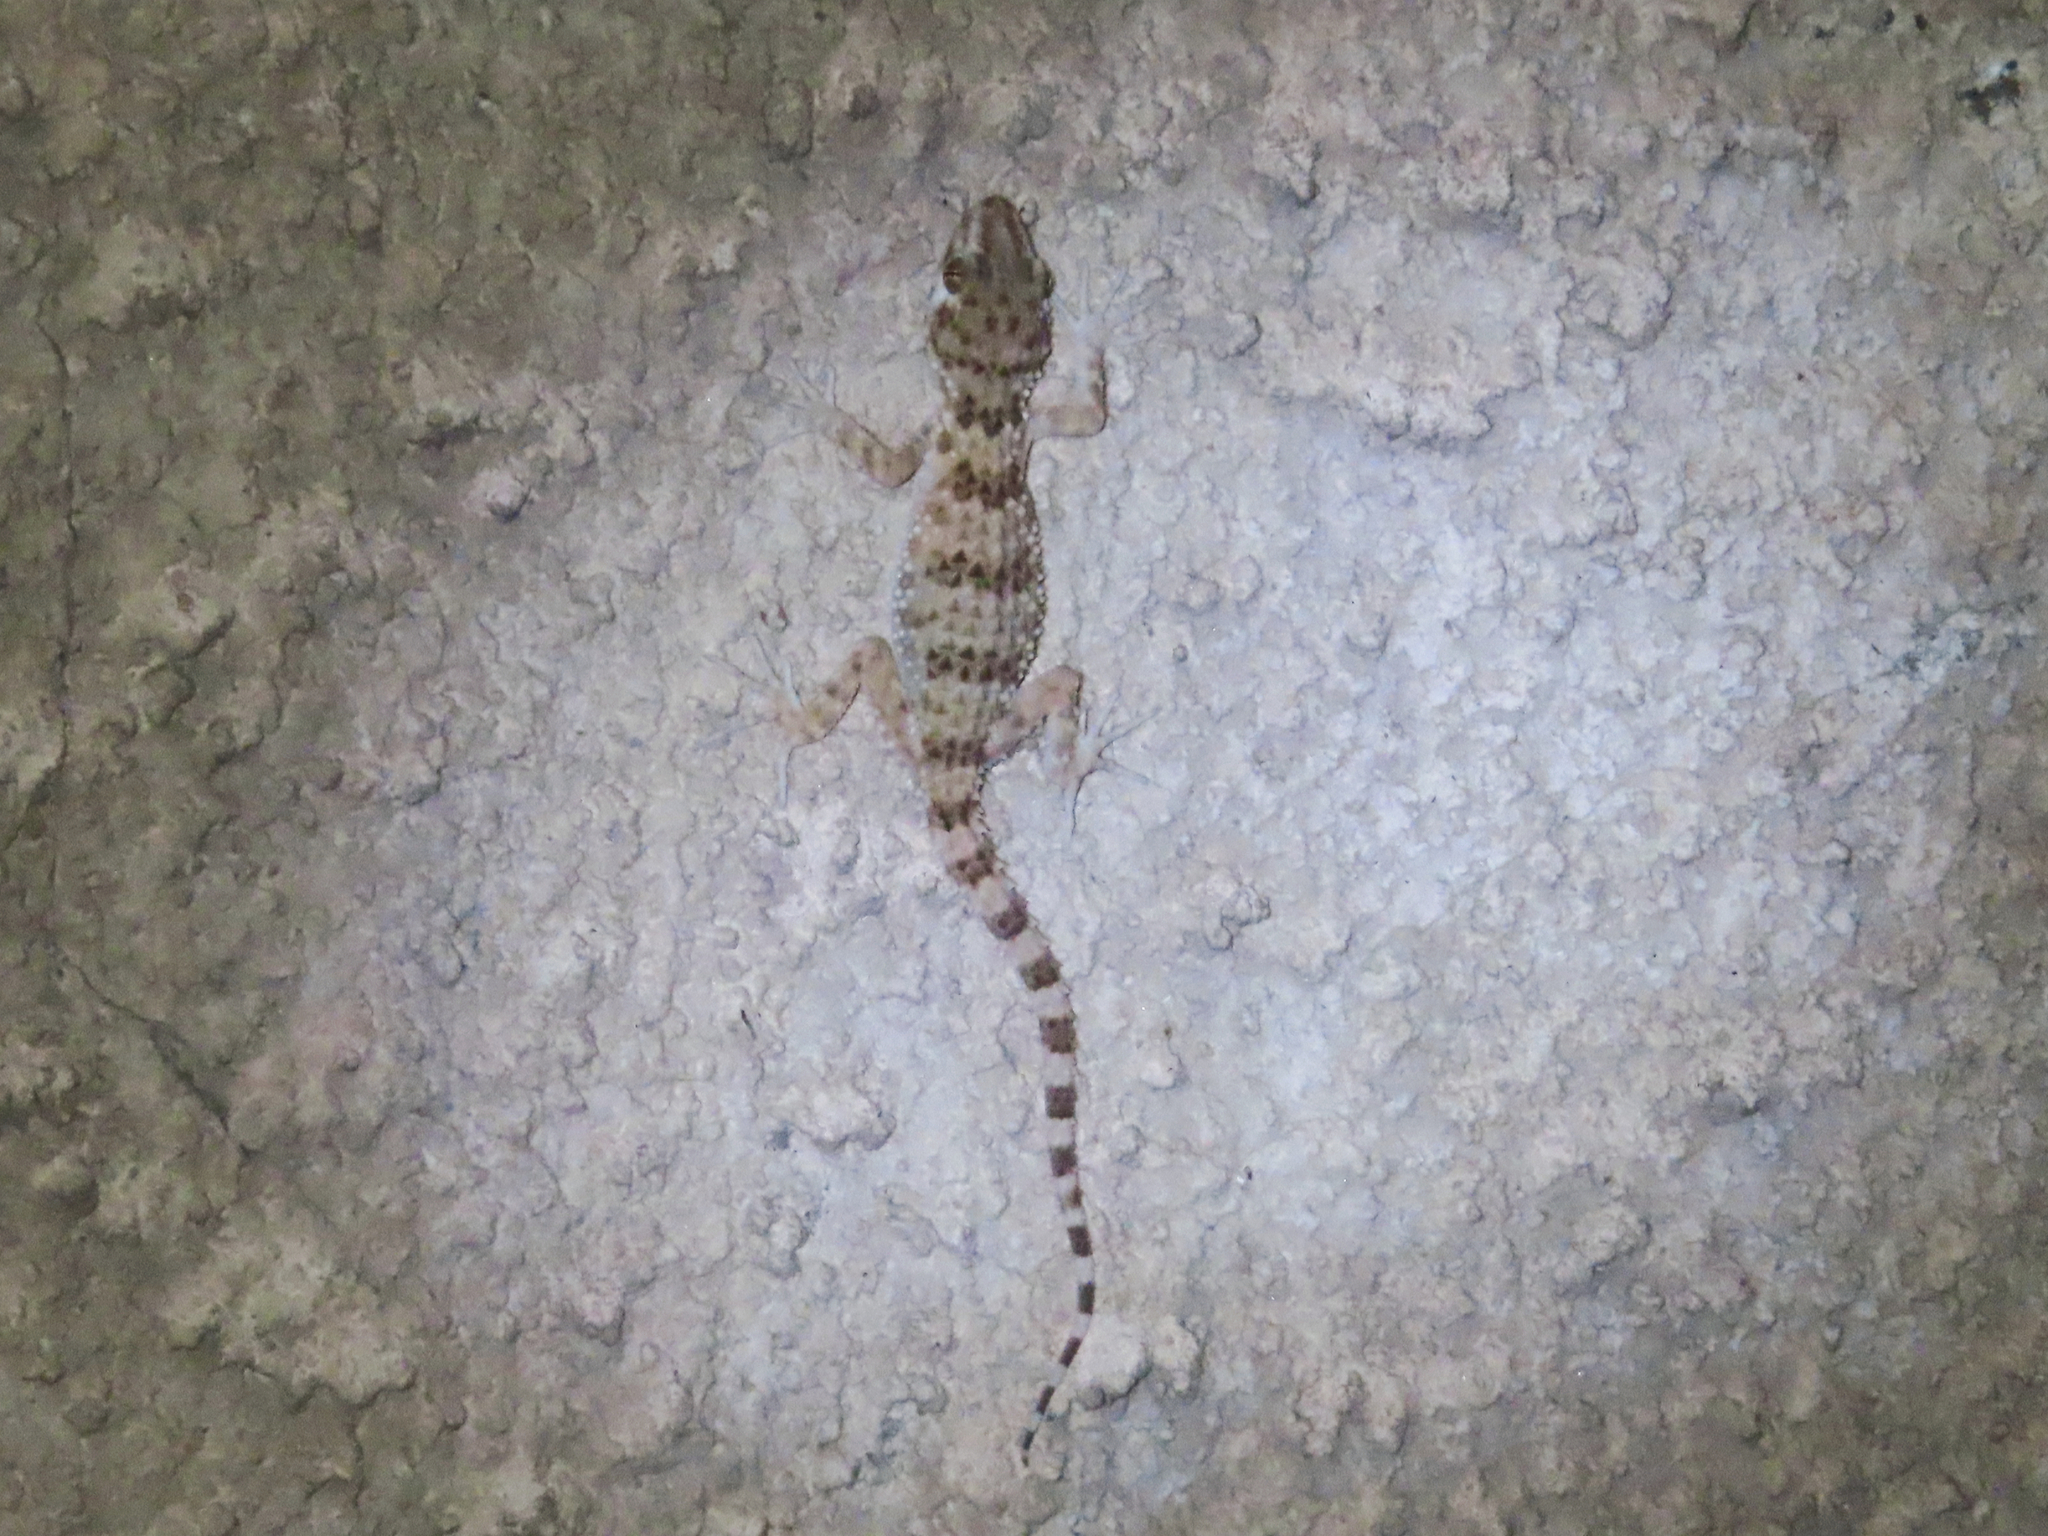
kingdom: Animalia
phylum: Chordata
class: Squamata
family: Gekkonidae
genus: Tenuidactylus
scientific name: Tenuidactylus caspius
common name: Caspian bent-toed gecko
